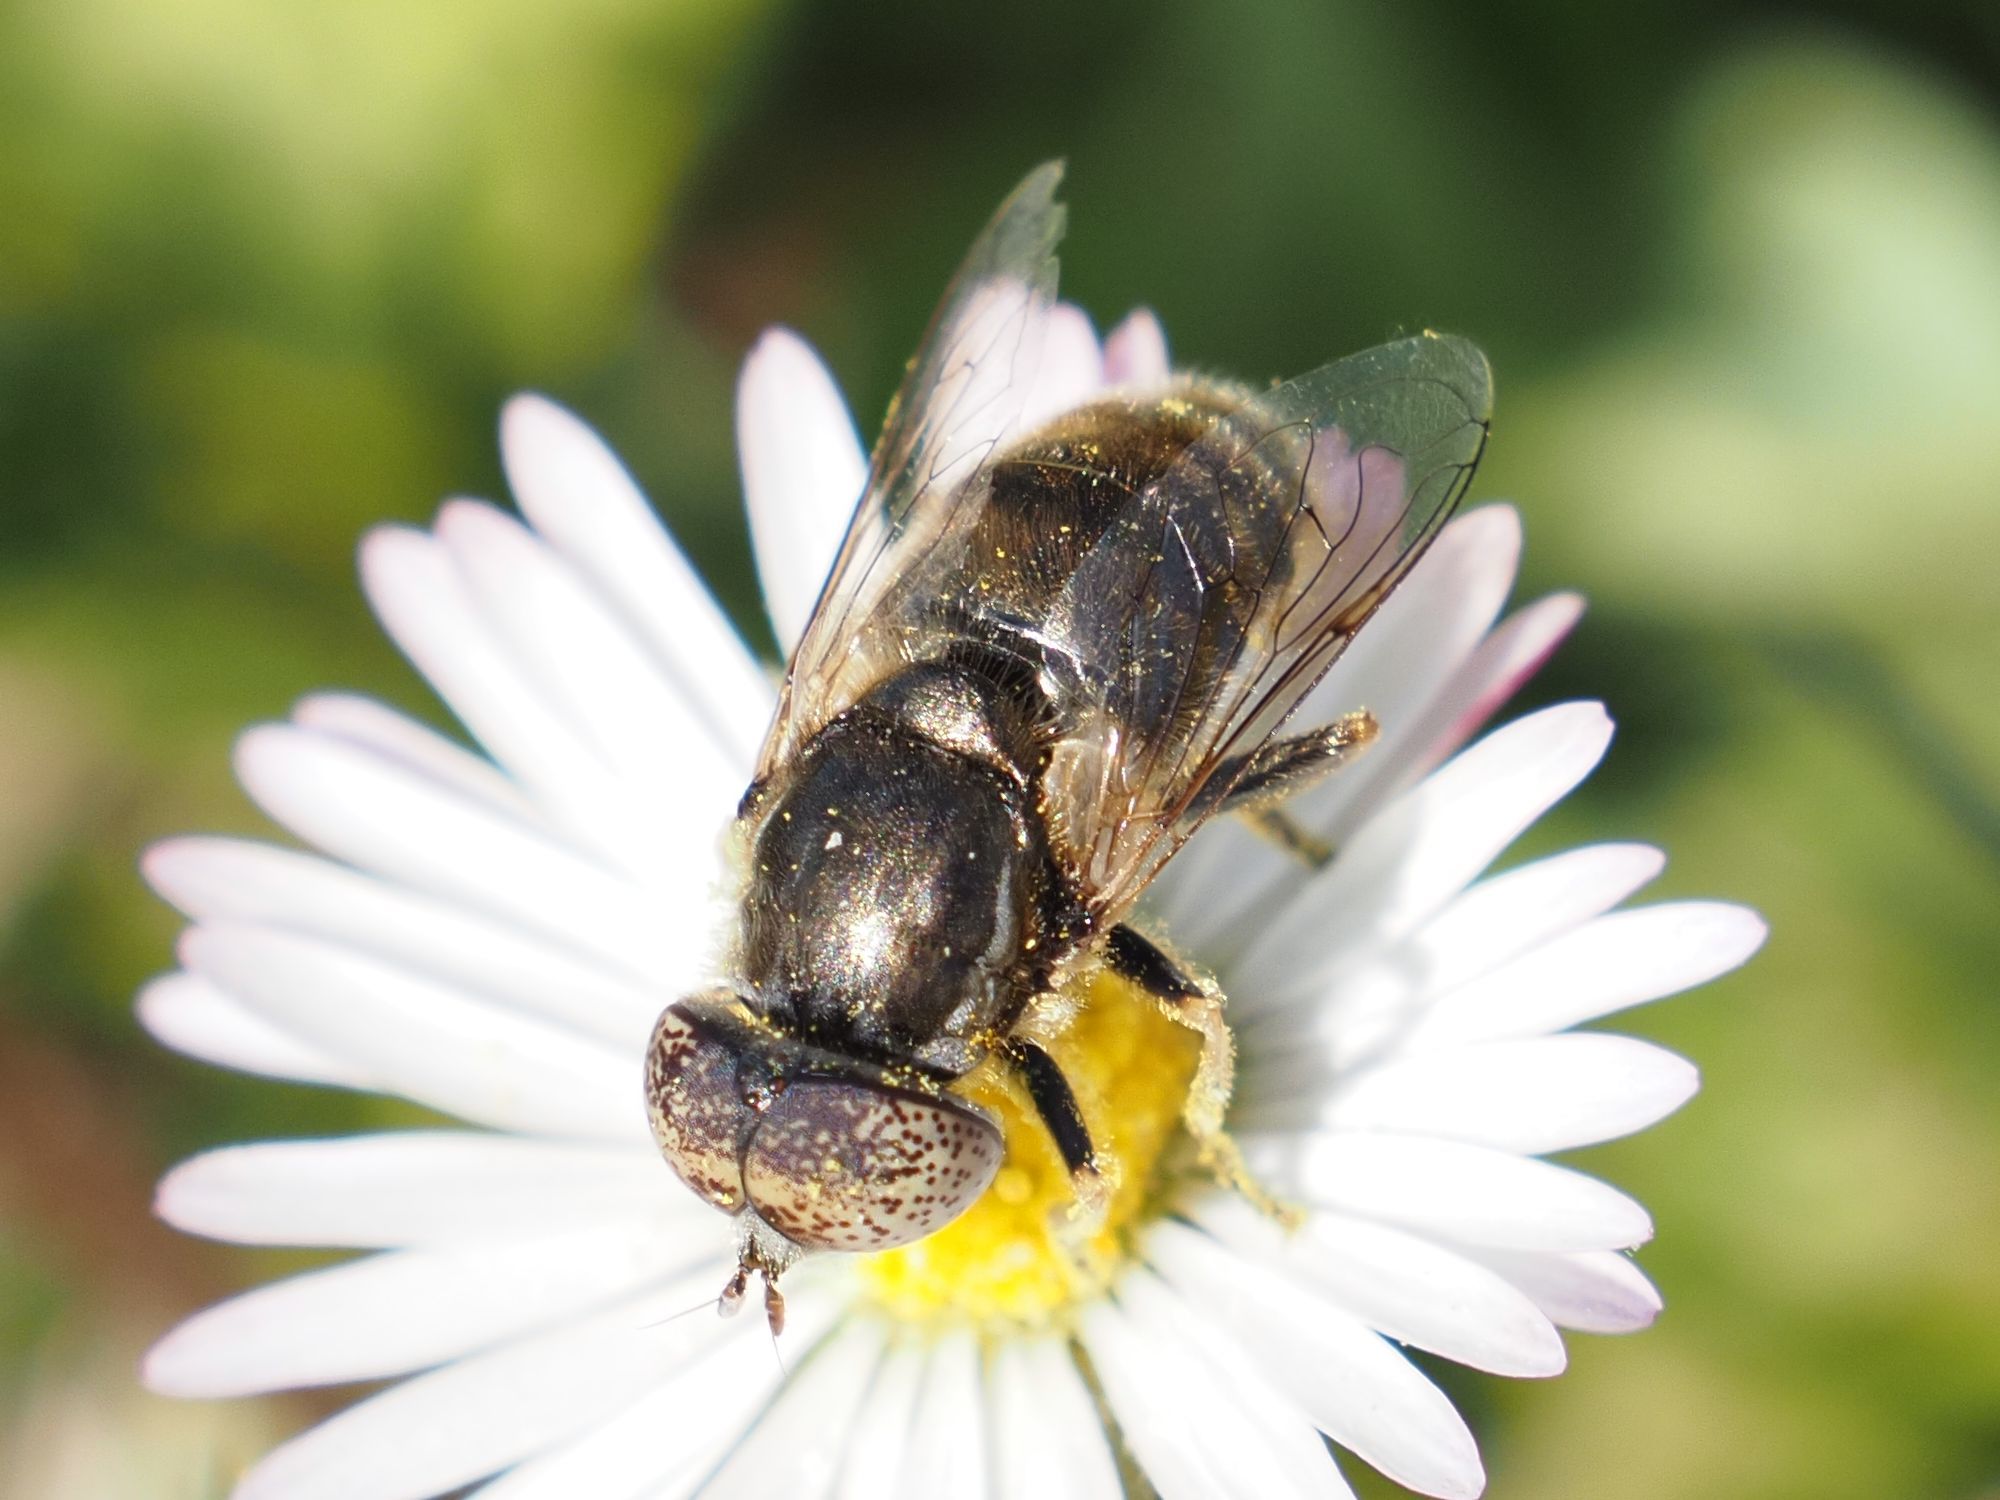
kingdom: Animalia
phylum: Arthropoda
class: Insecta
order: Diptera
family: Syrphidae
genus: Eristalinus
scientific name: Eristalinus aeneus
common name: Syrphid fly
